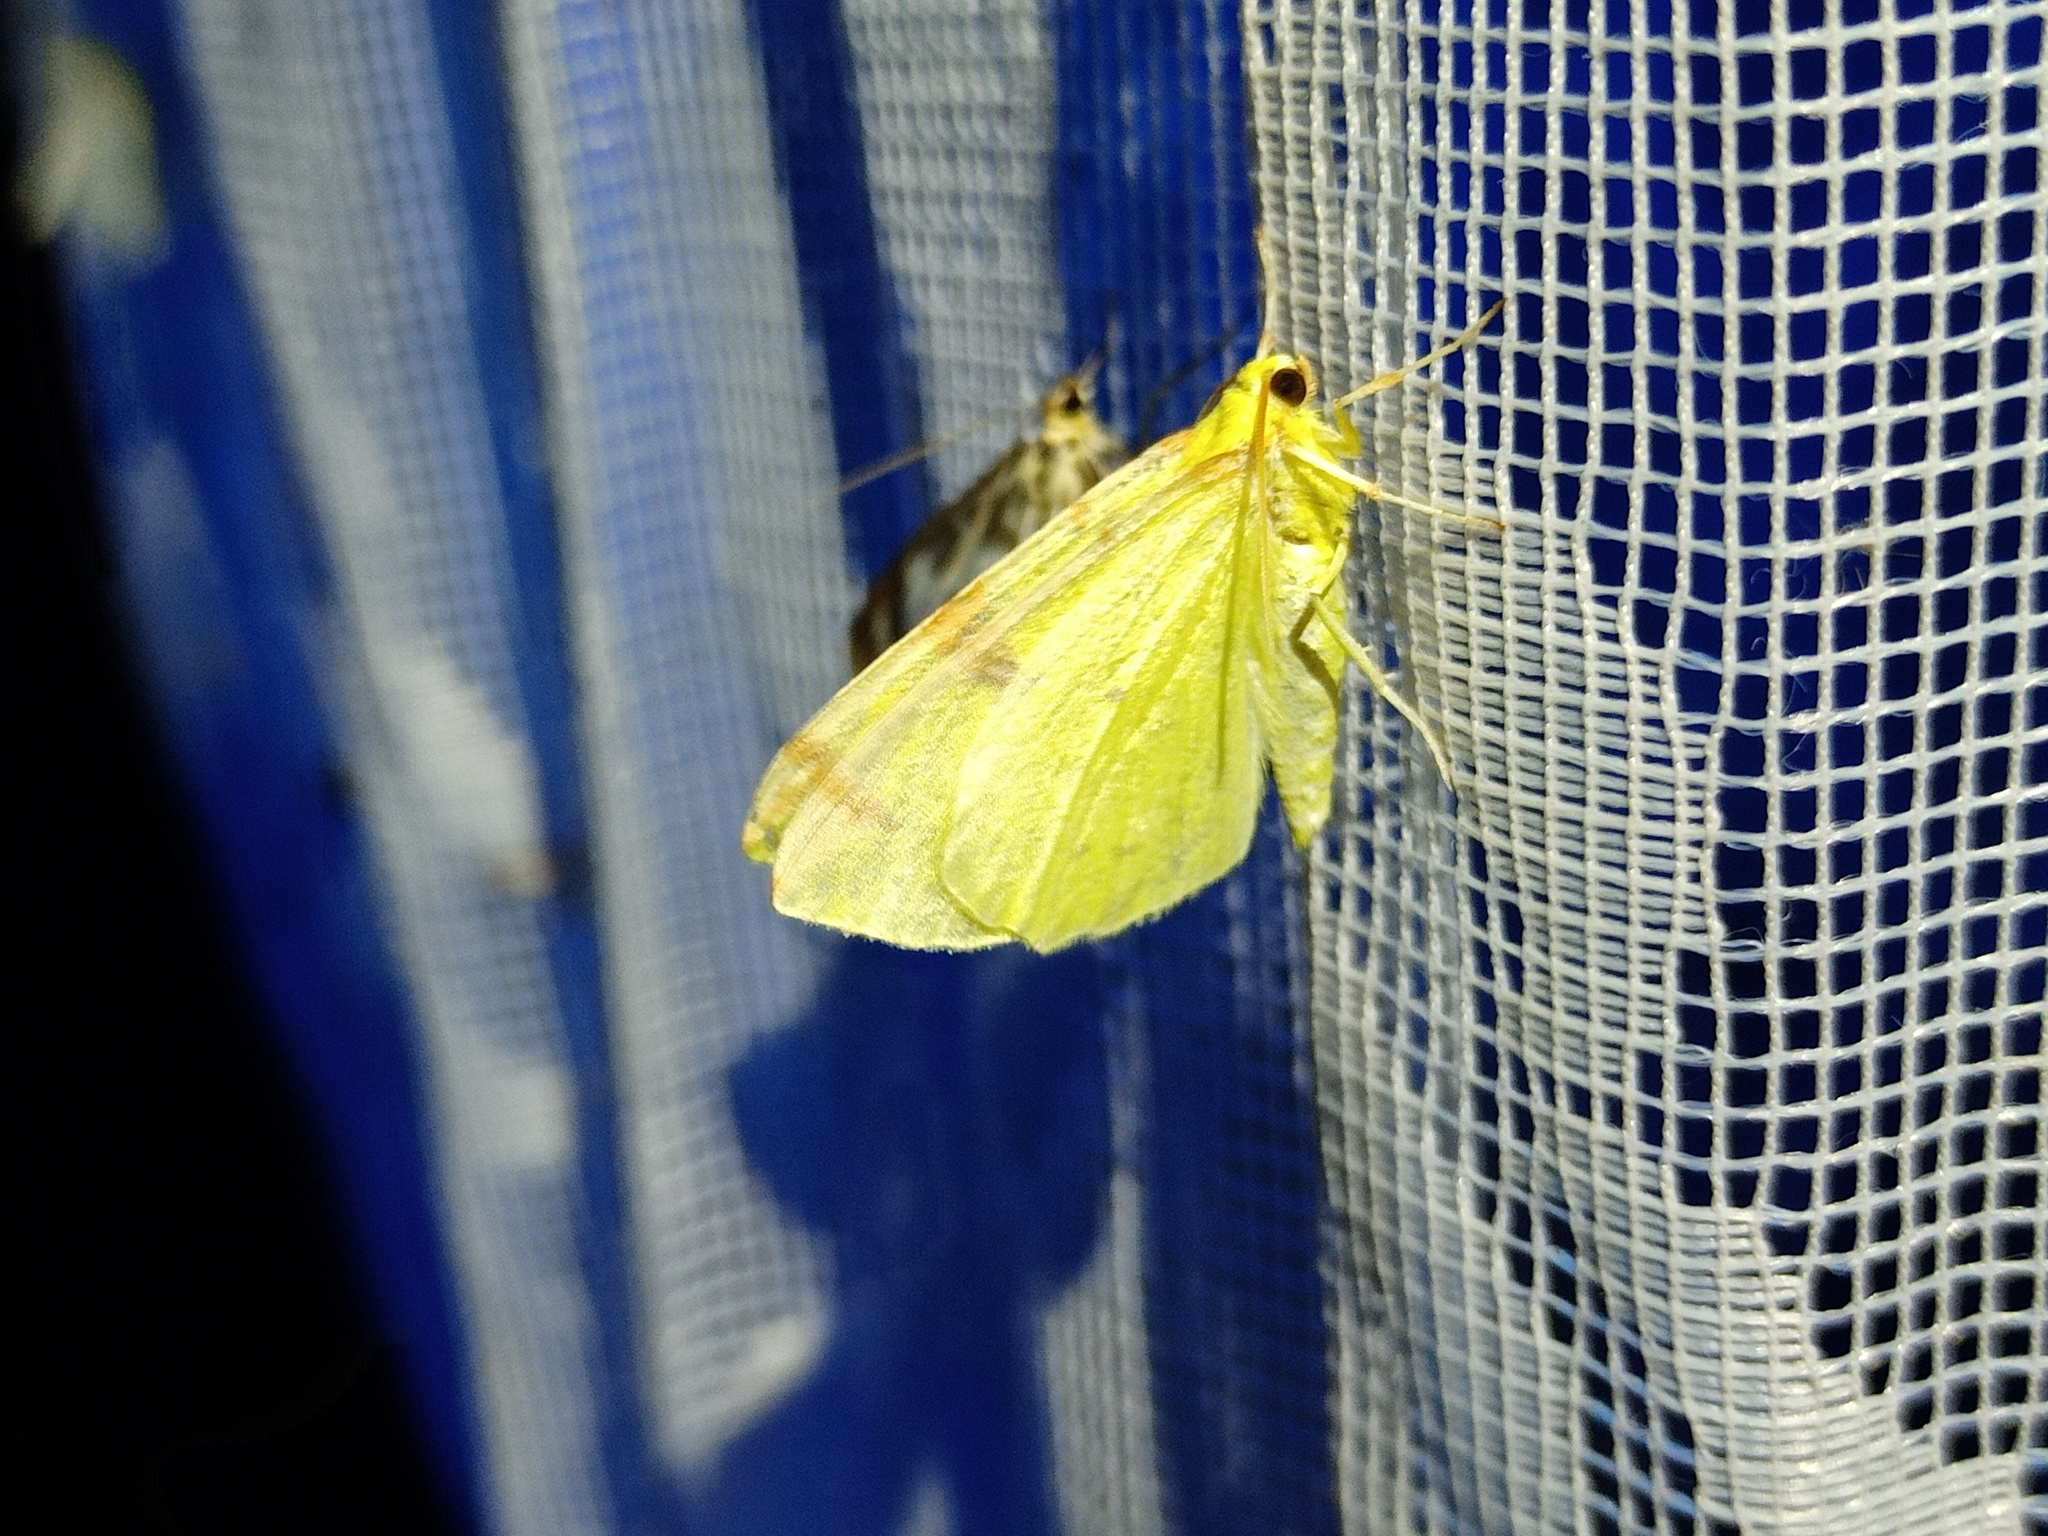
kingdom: Animalia
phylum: Arthropoda
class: Insecta
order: Lepidoptera
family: Geometridae
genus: Opisthograptis
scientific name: Opisthograptis luteolata
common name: Brimstone moth
